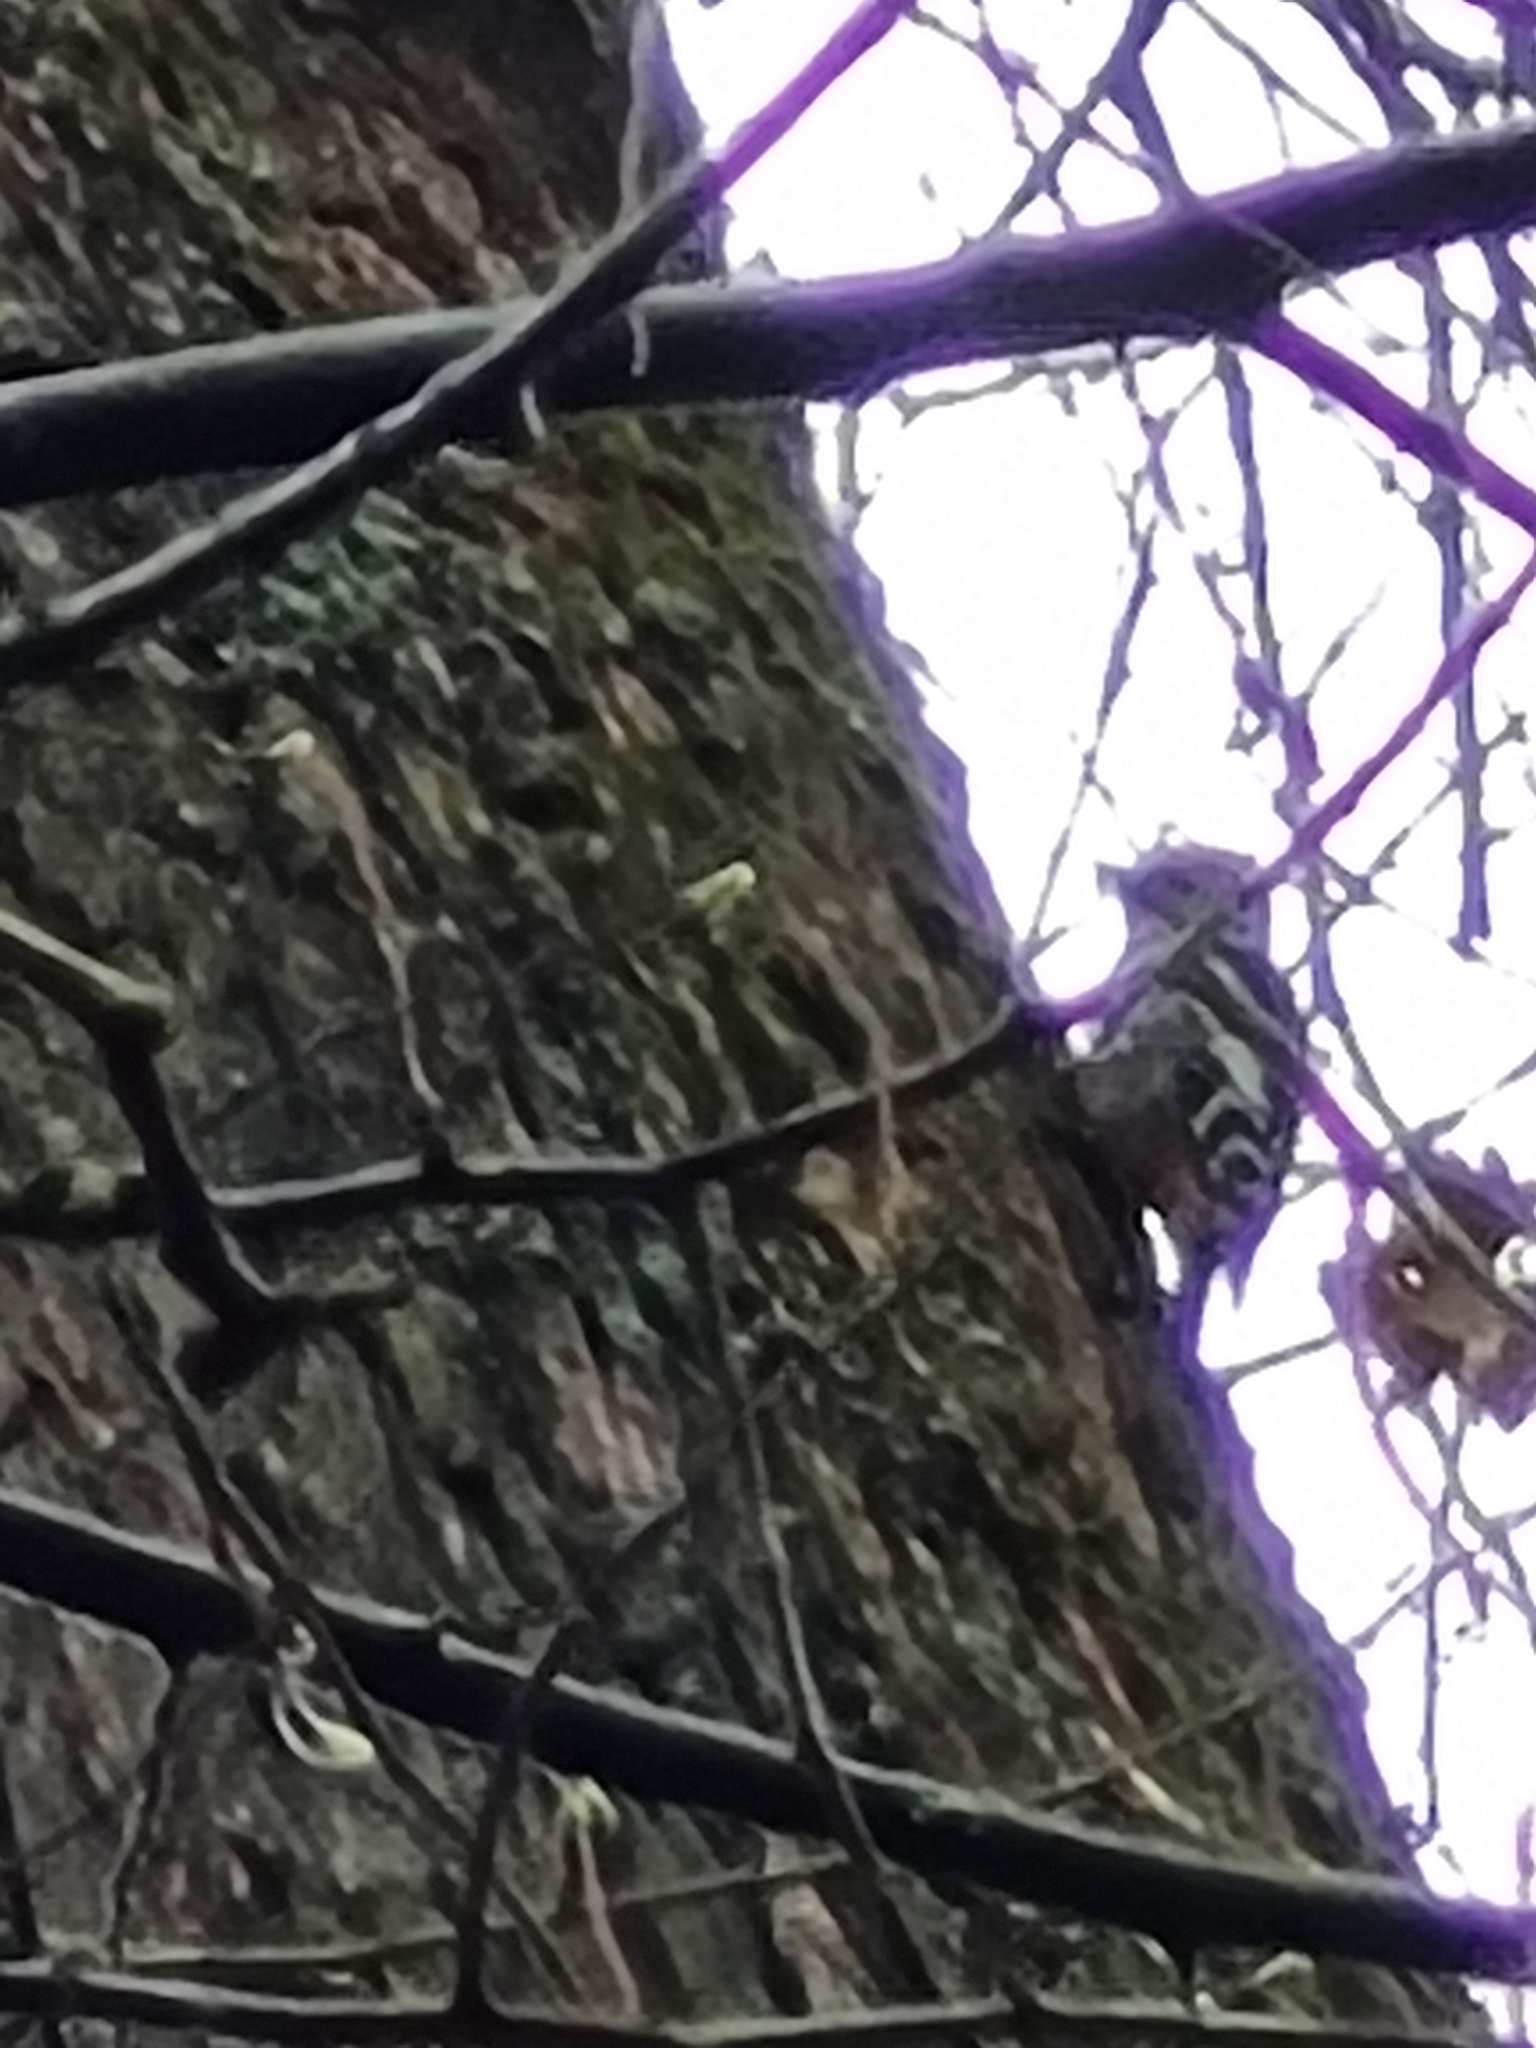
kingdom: Animalia
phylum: Chordata
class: Aves
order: Piciformes
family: Picidae
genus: Dendrocoptes
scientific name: Dendrocoptes medius
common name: Middle spotted woodpecker
